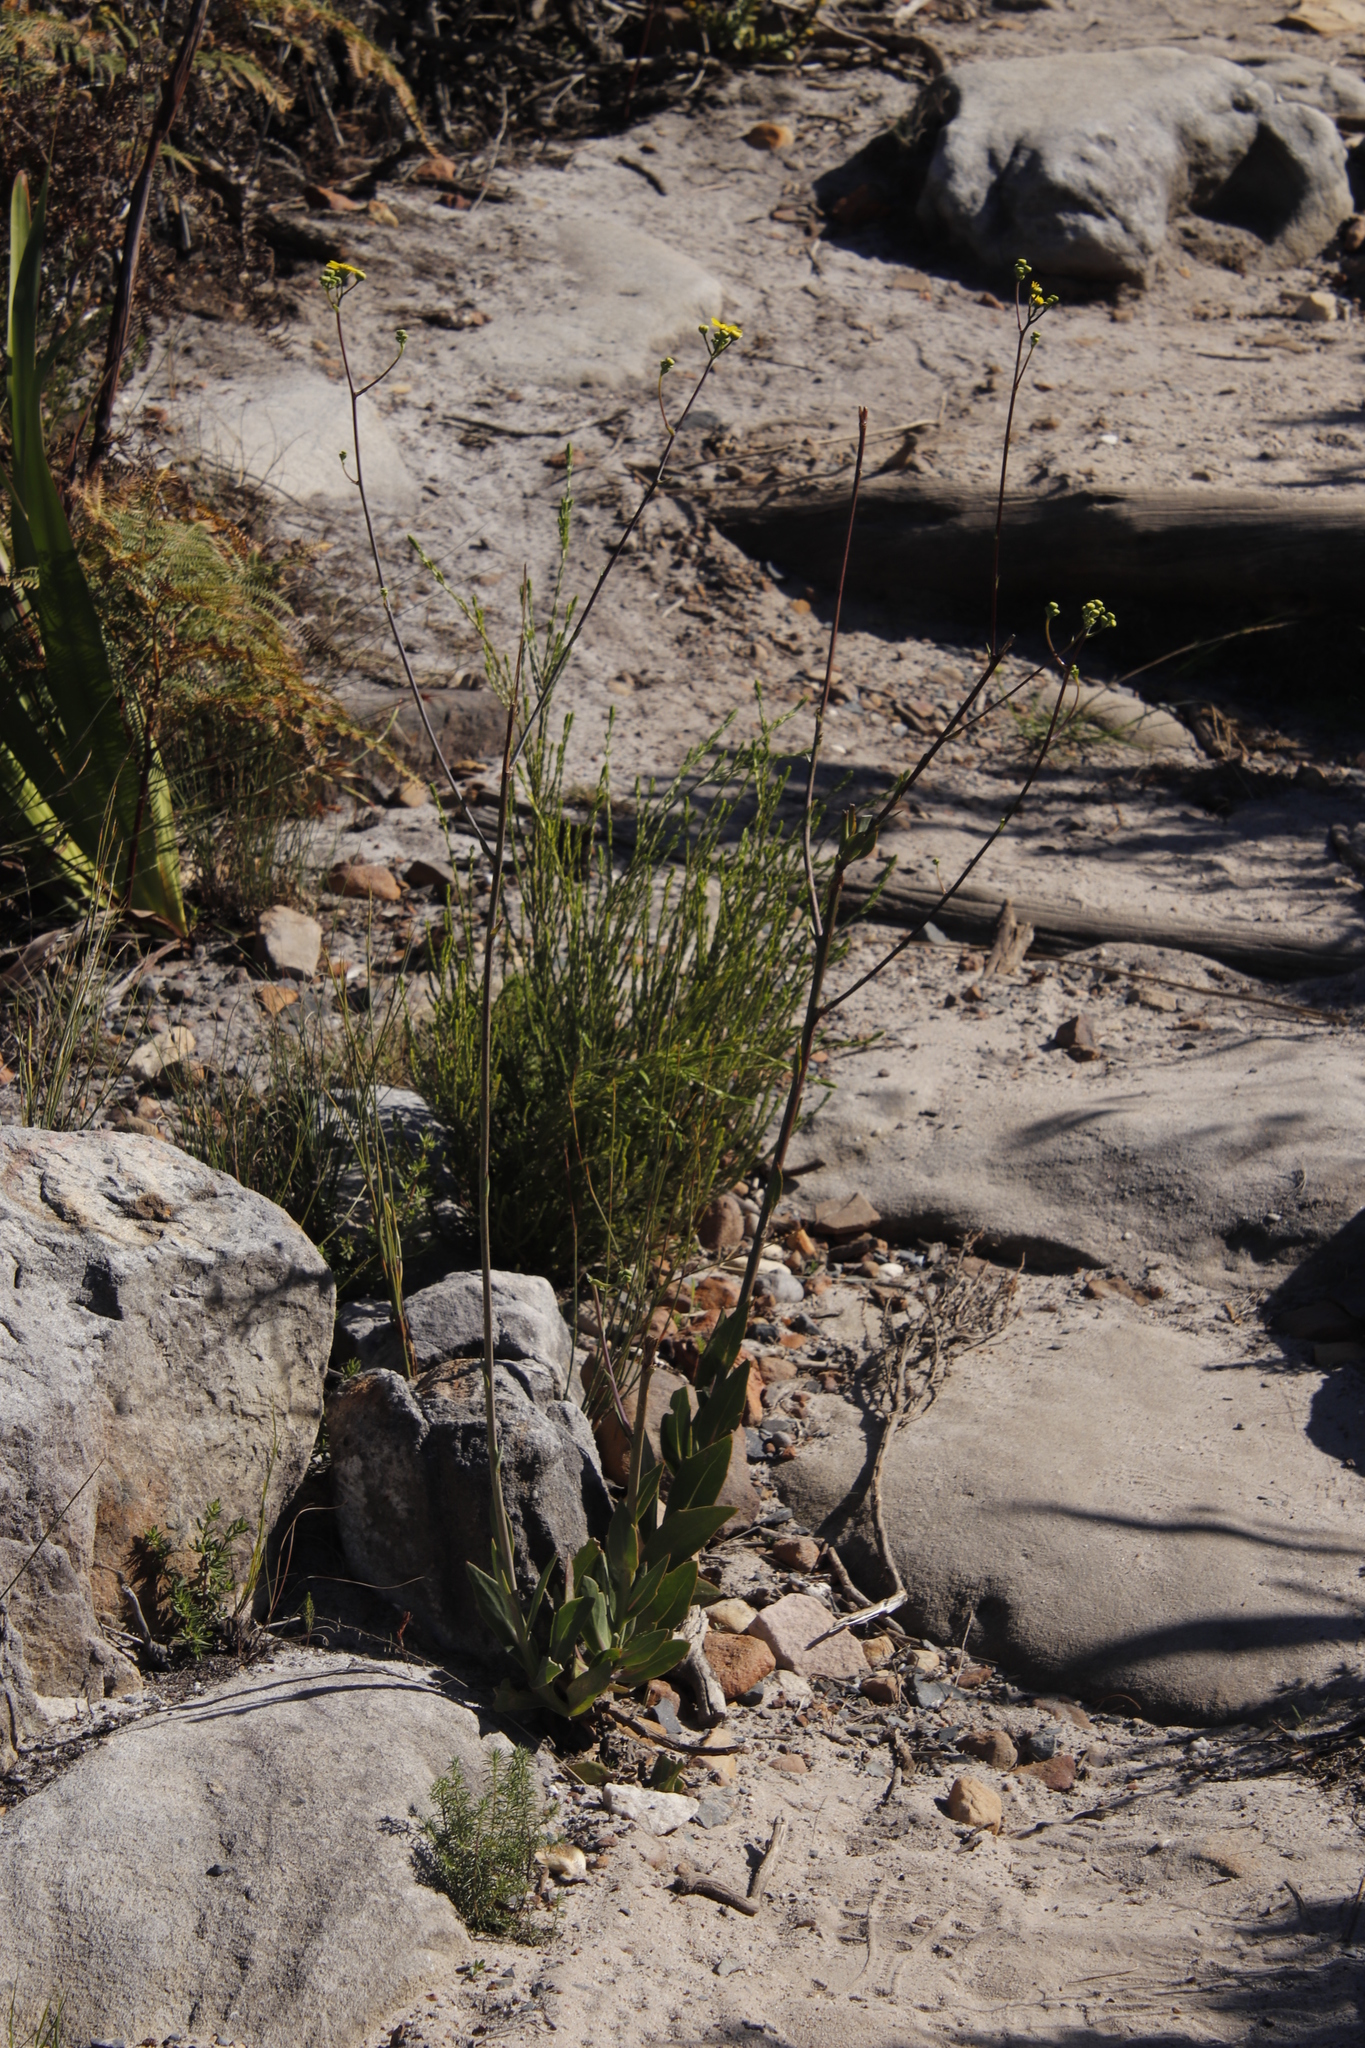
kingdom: Plantae
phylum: Tracheophyta
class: Magnoliopsida
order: Asterales
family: Asteraceae
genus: Othonna
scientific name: Othonna quinquedentata
